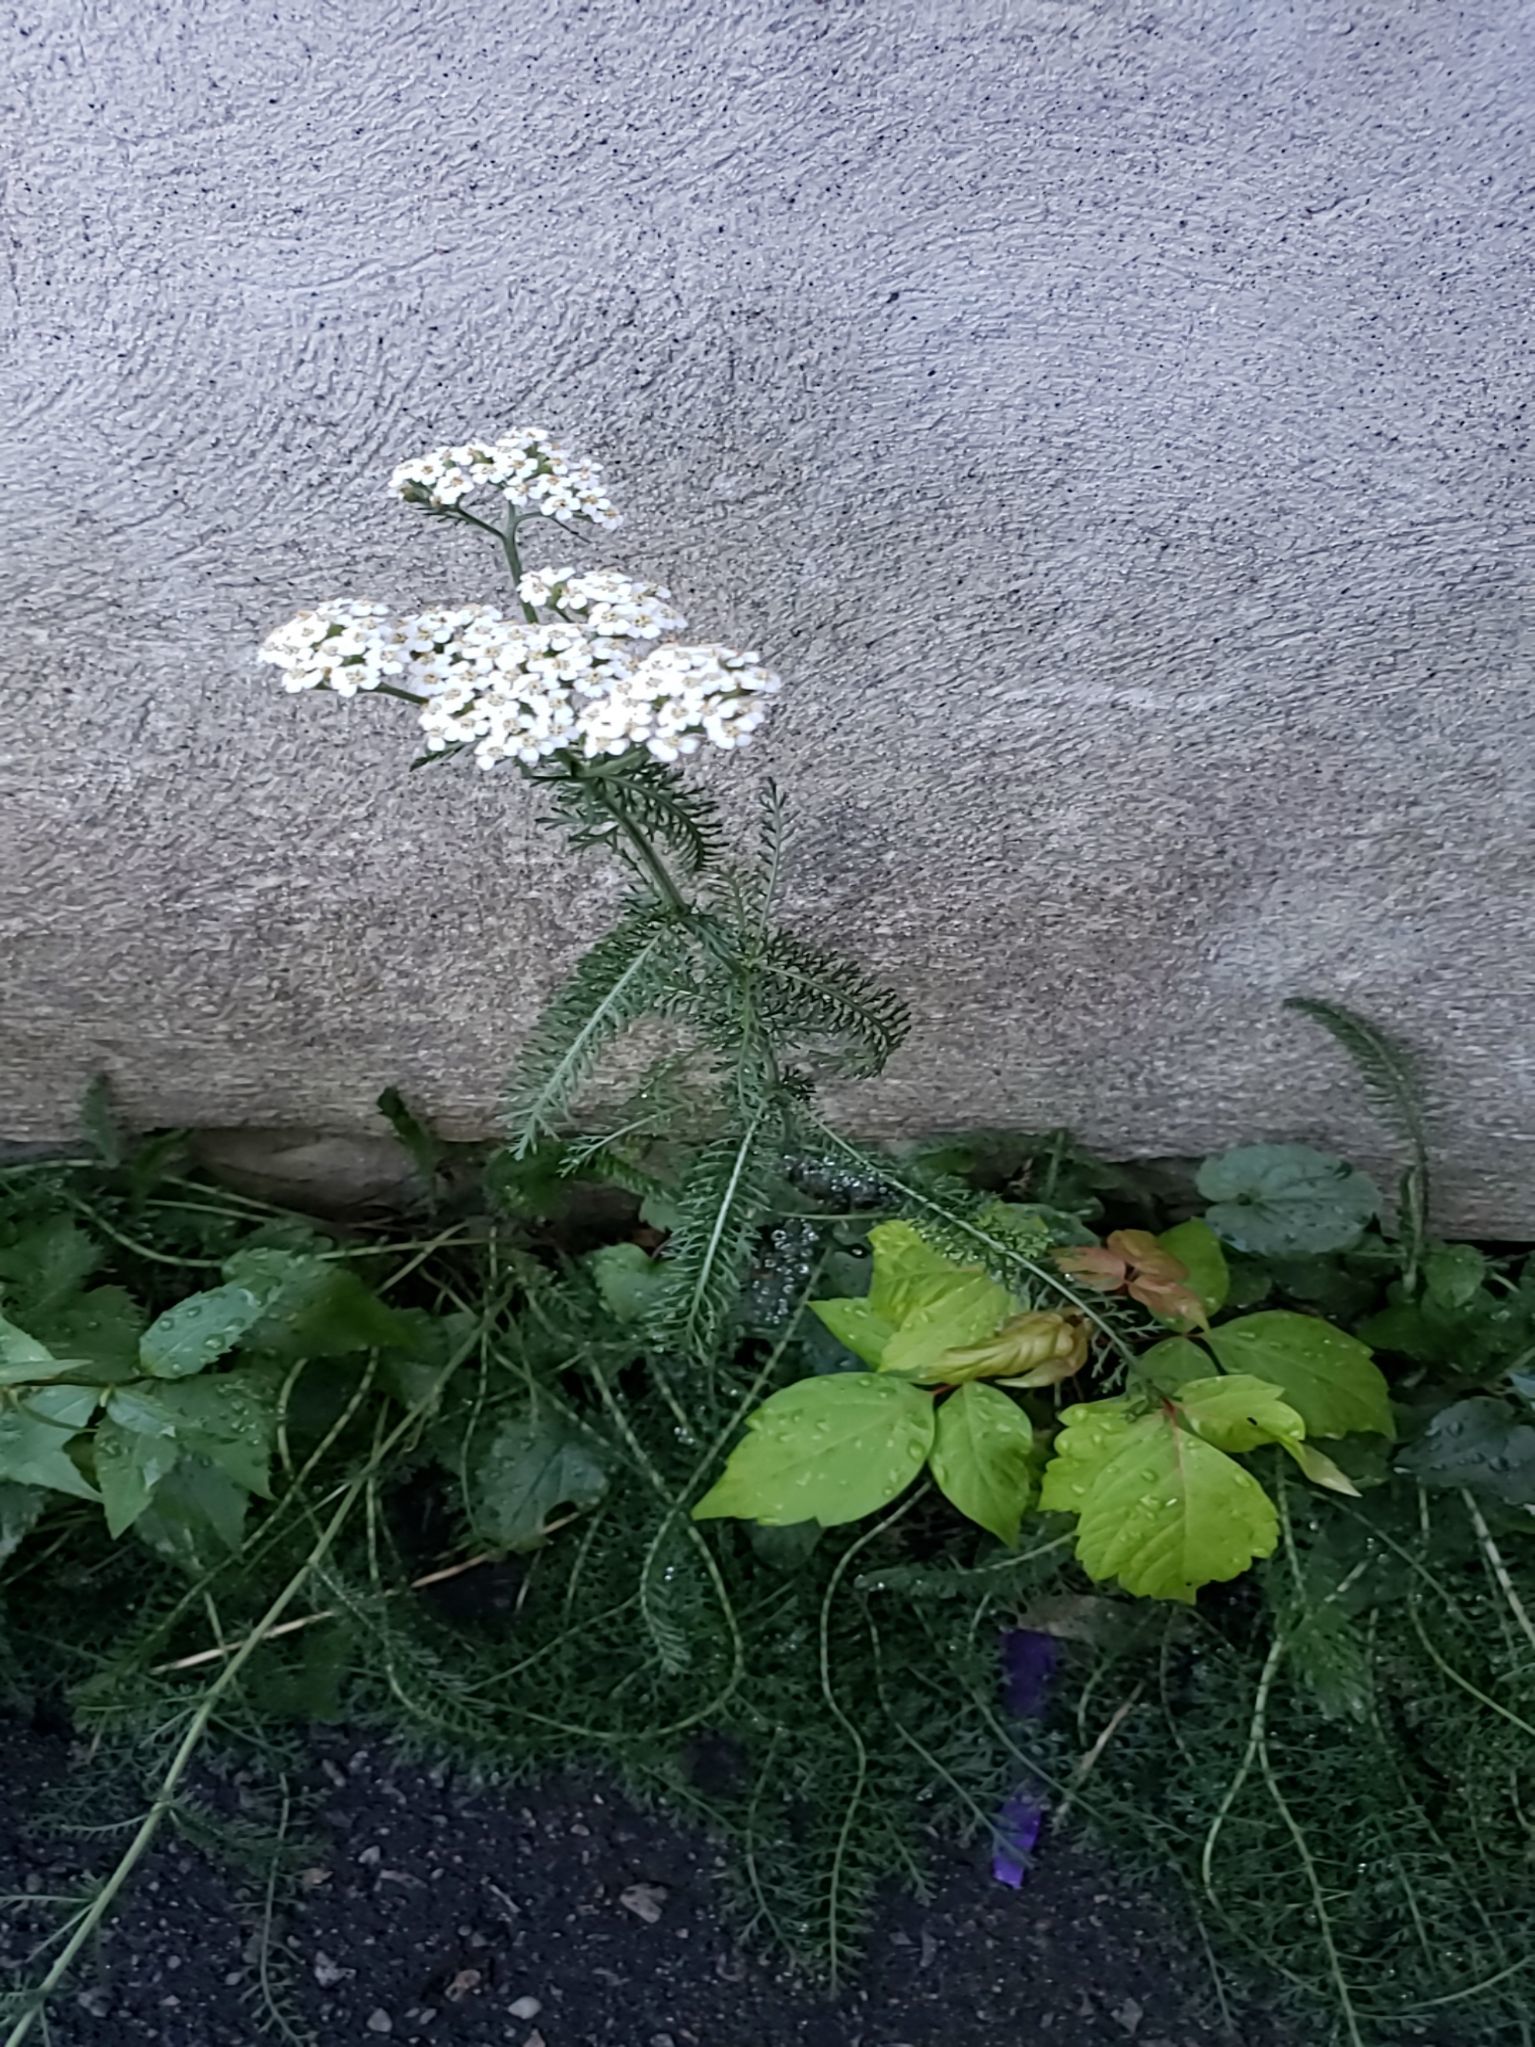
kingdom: Plantae
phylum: Tracheophyta
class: Magnoliopsida
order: Asterales
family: Asteraceae
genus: Achillea
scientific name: Achillea millefolium
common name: Yarrow
